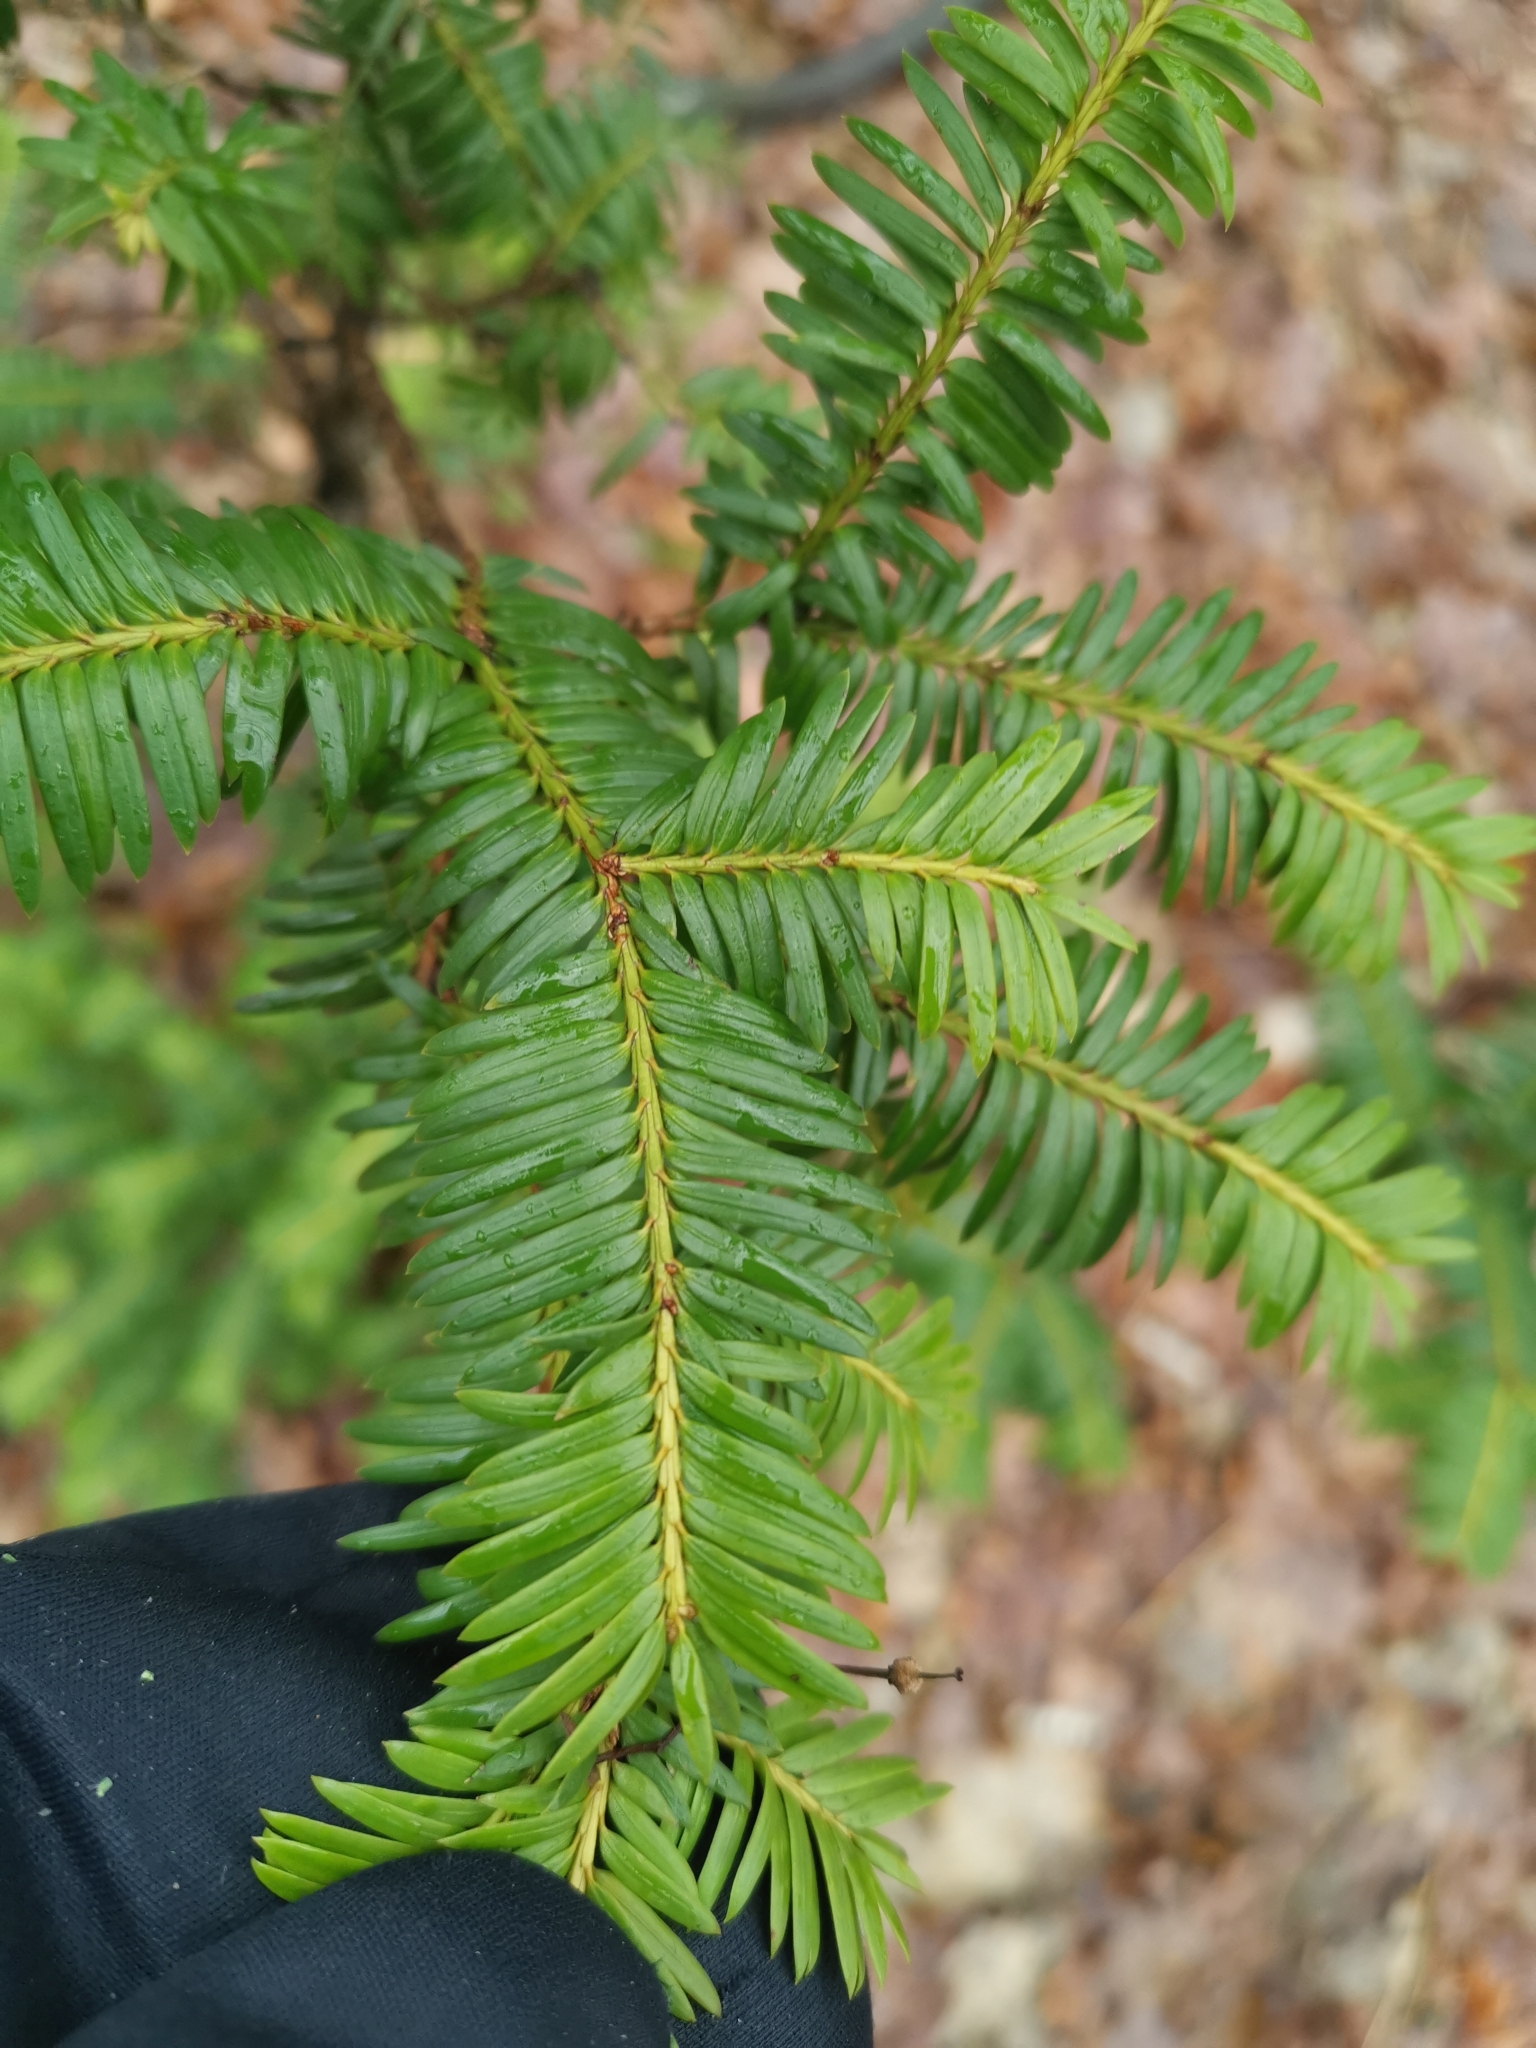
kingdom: Plantae
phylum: Tracheophyta
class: Pinopsida
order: Pinales
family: Taxaceae
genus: Taxus
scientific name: Taxus baccata
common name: Yew
